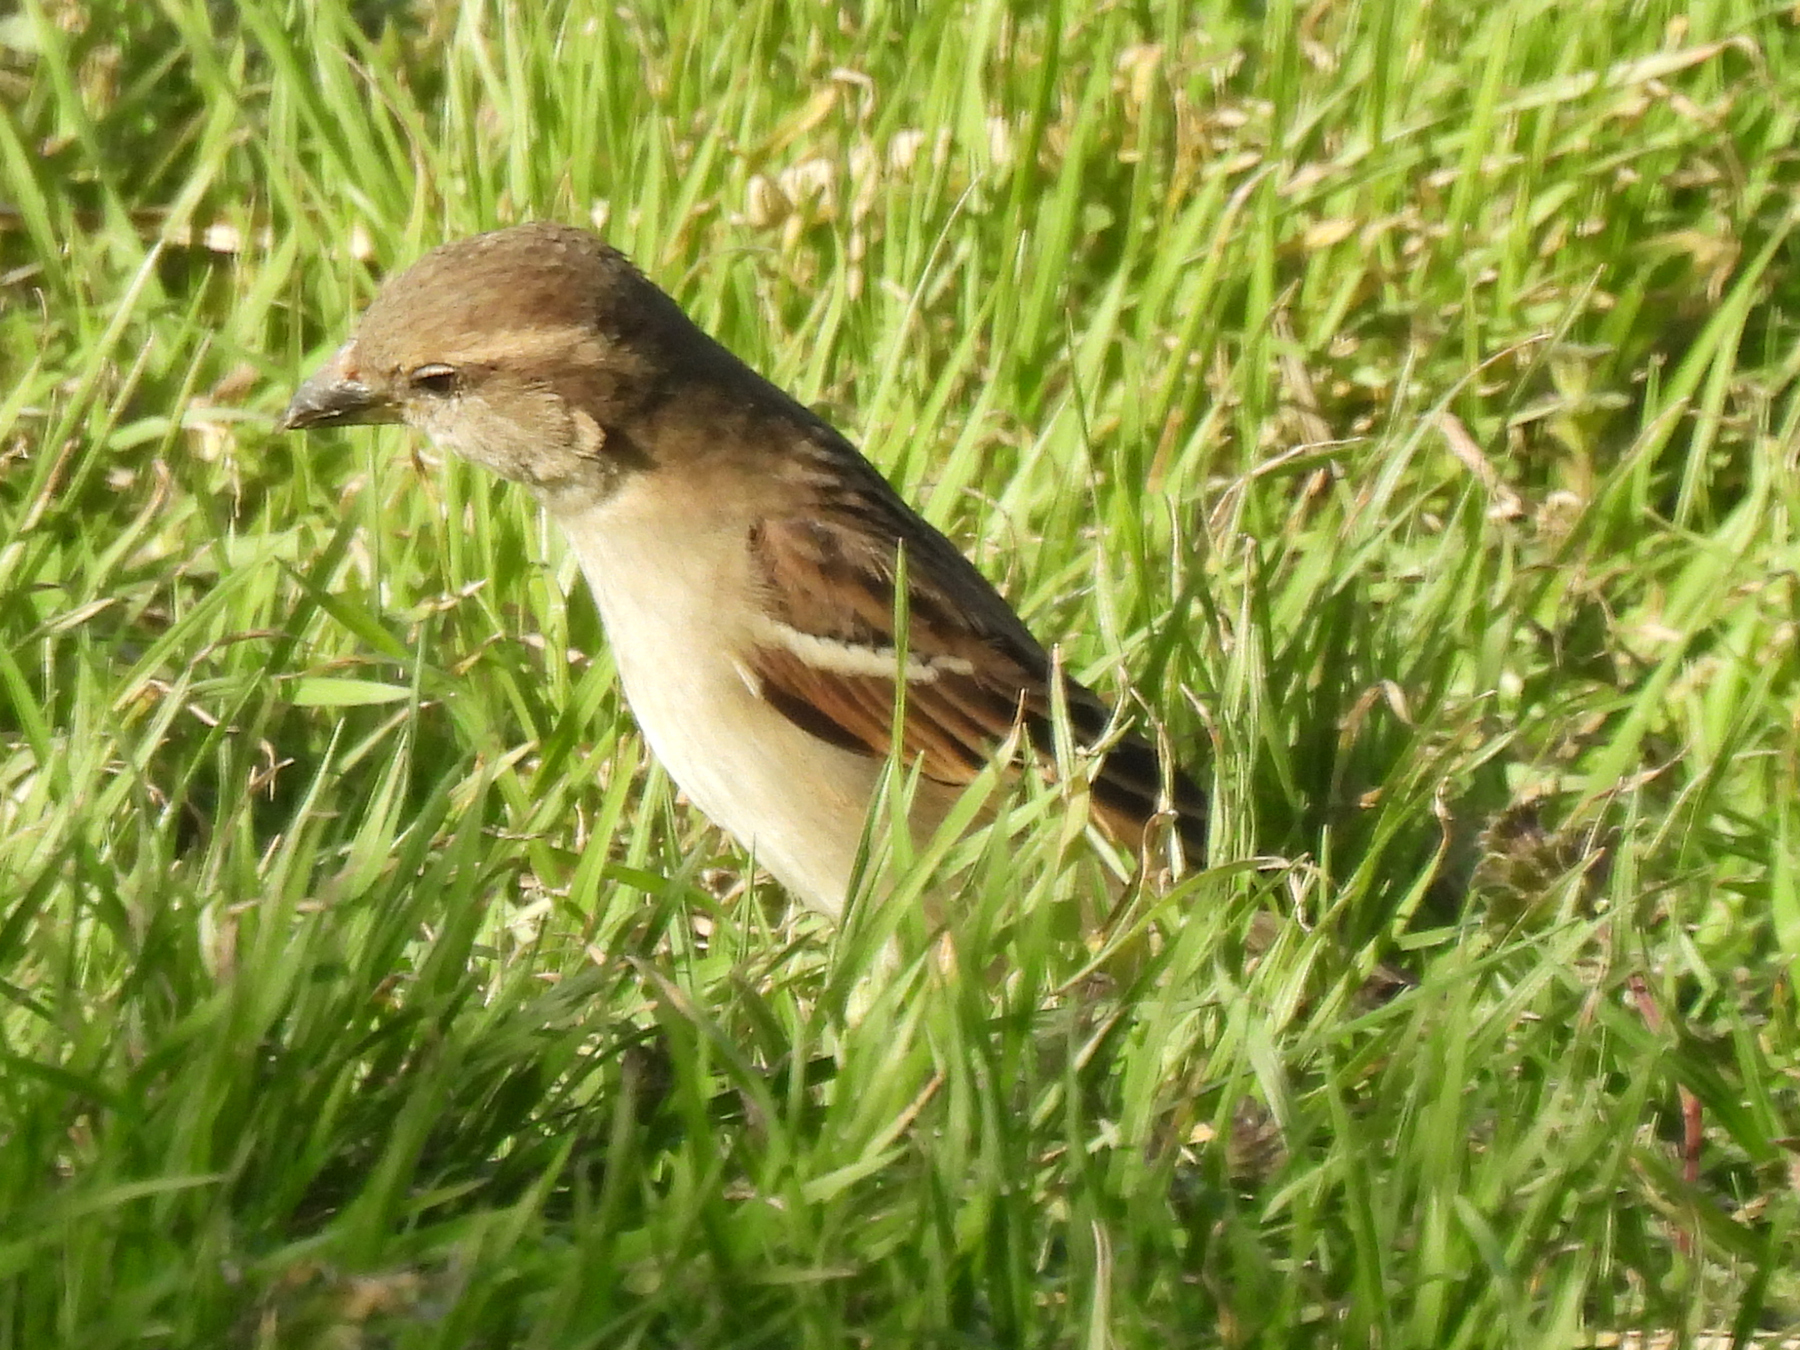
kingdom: Animalia
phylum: Chordata
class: Aves
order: Passeriformes
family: Passeridae
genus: Passer
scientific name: Passer domesticus
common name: House sparrow
